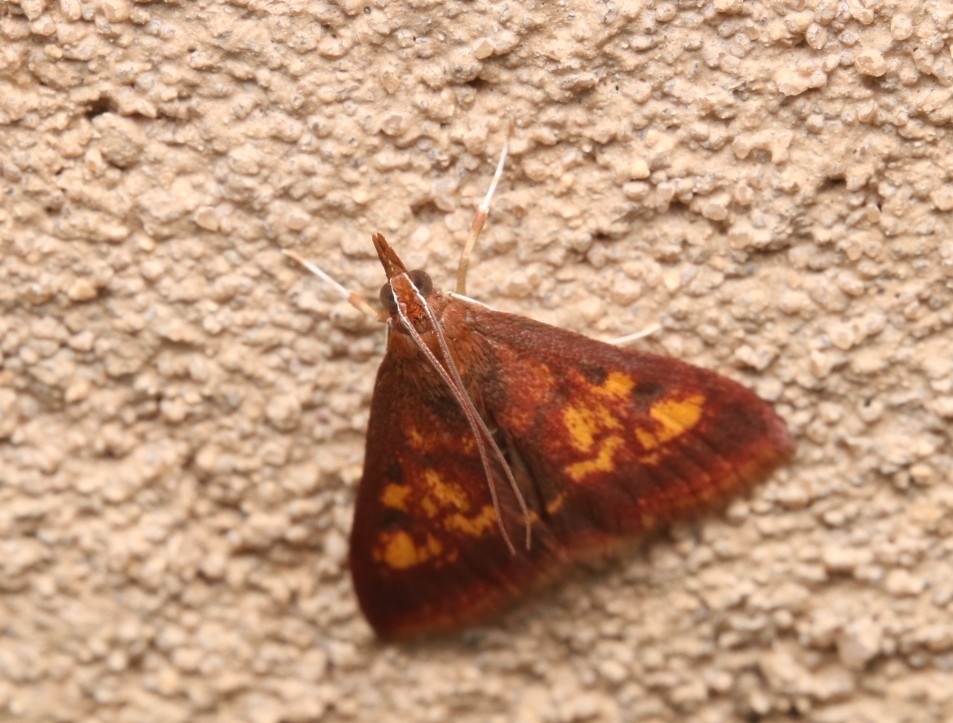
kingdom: Animalia
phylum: Arthropoda
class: Insecta
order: Lepidoptera
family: Crambidae
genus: Pyrausta
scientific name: Pyrausta acrionalis
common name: Mint-loving pyrausta moth
